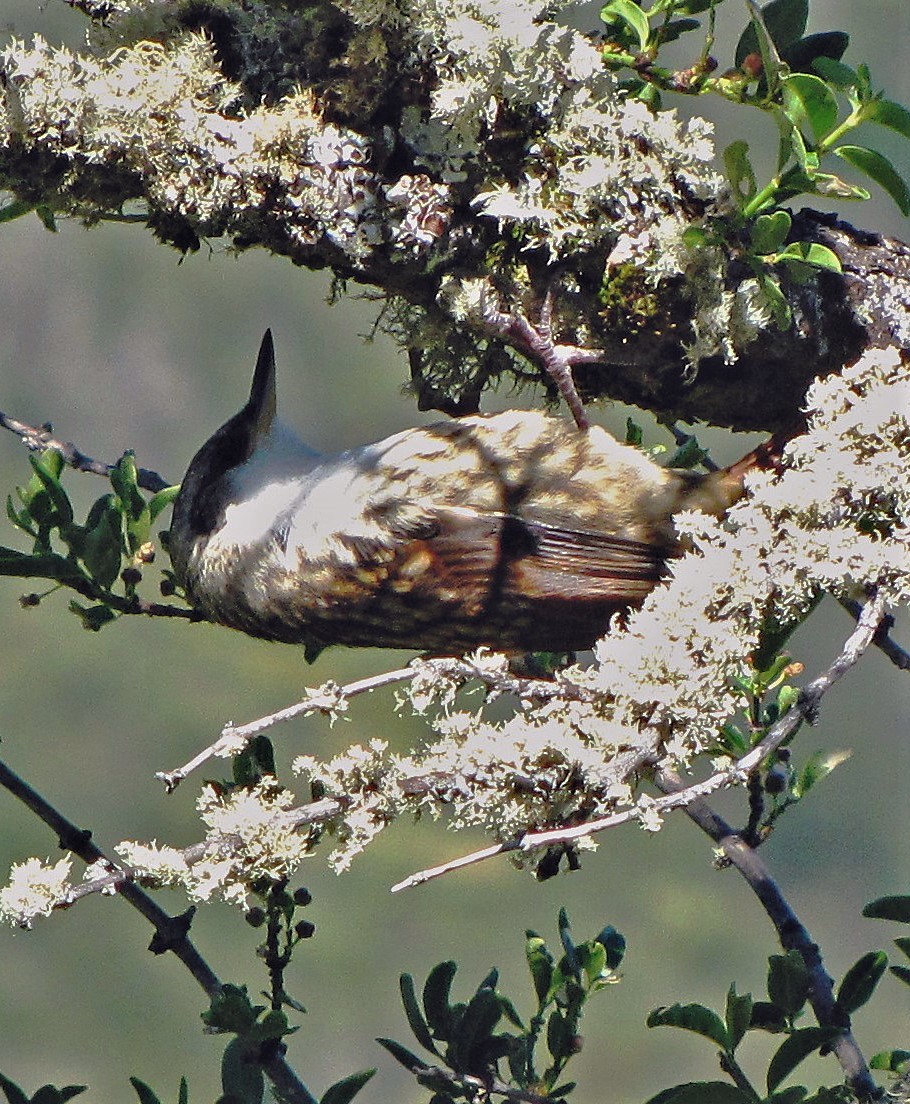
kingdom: Animalia
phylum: Chordata
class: Aves
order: Passeriformes
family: Furnariidae
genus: Pygarrhichas
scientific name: Pygarrhichas albogularis
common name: White-throated treerunner
